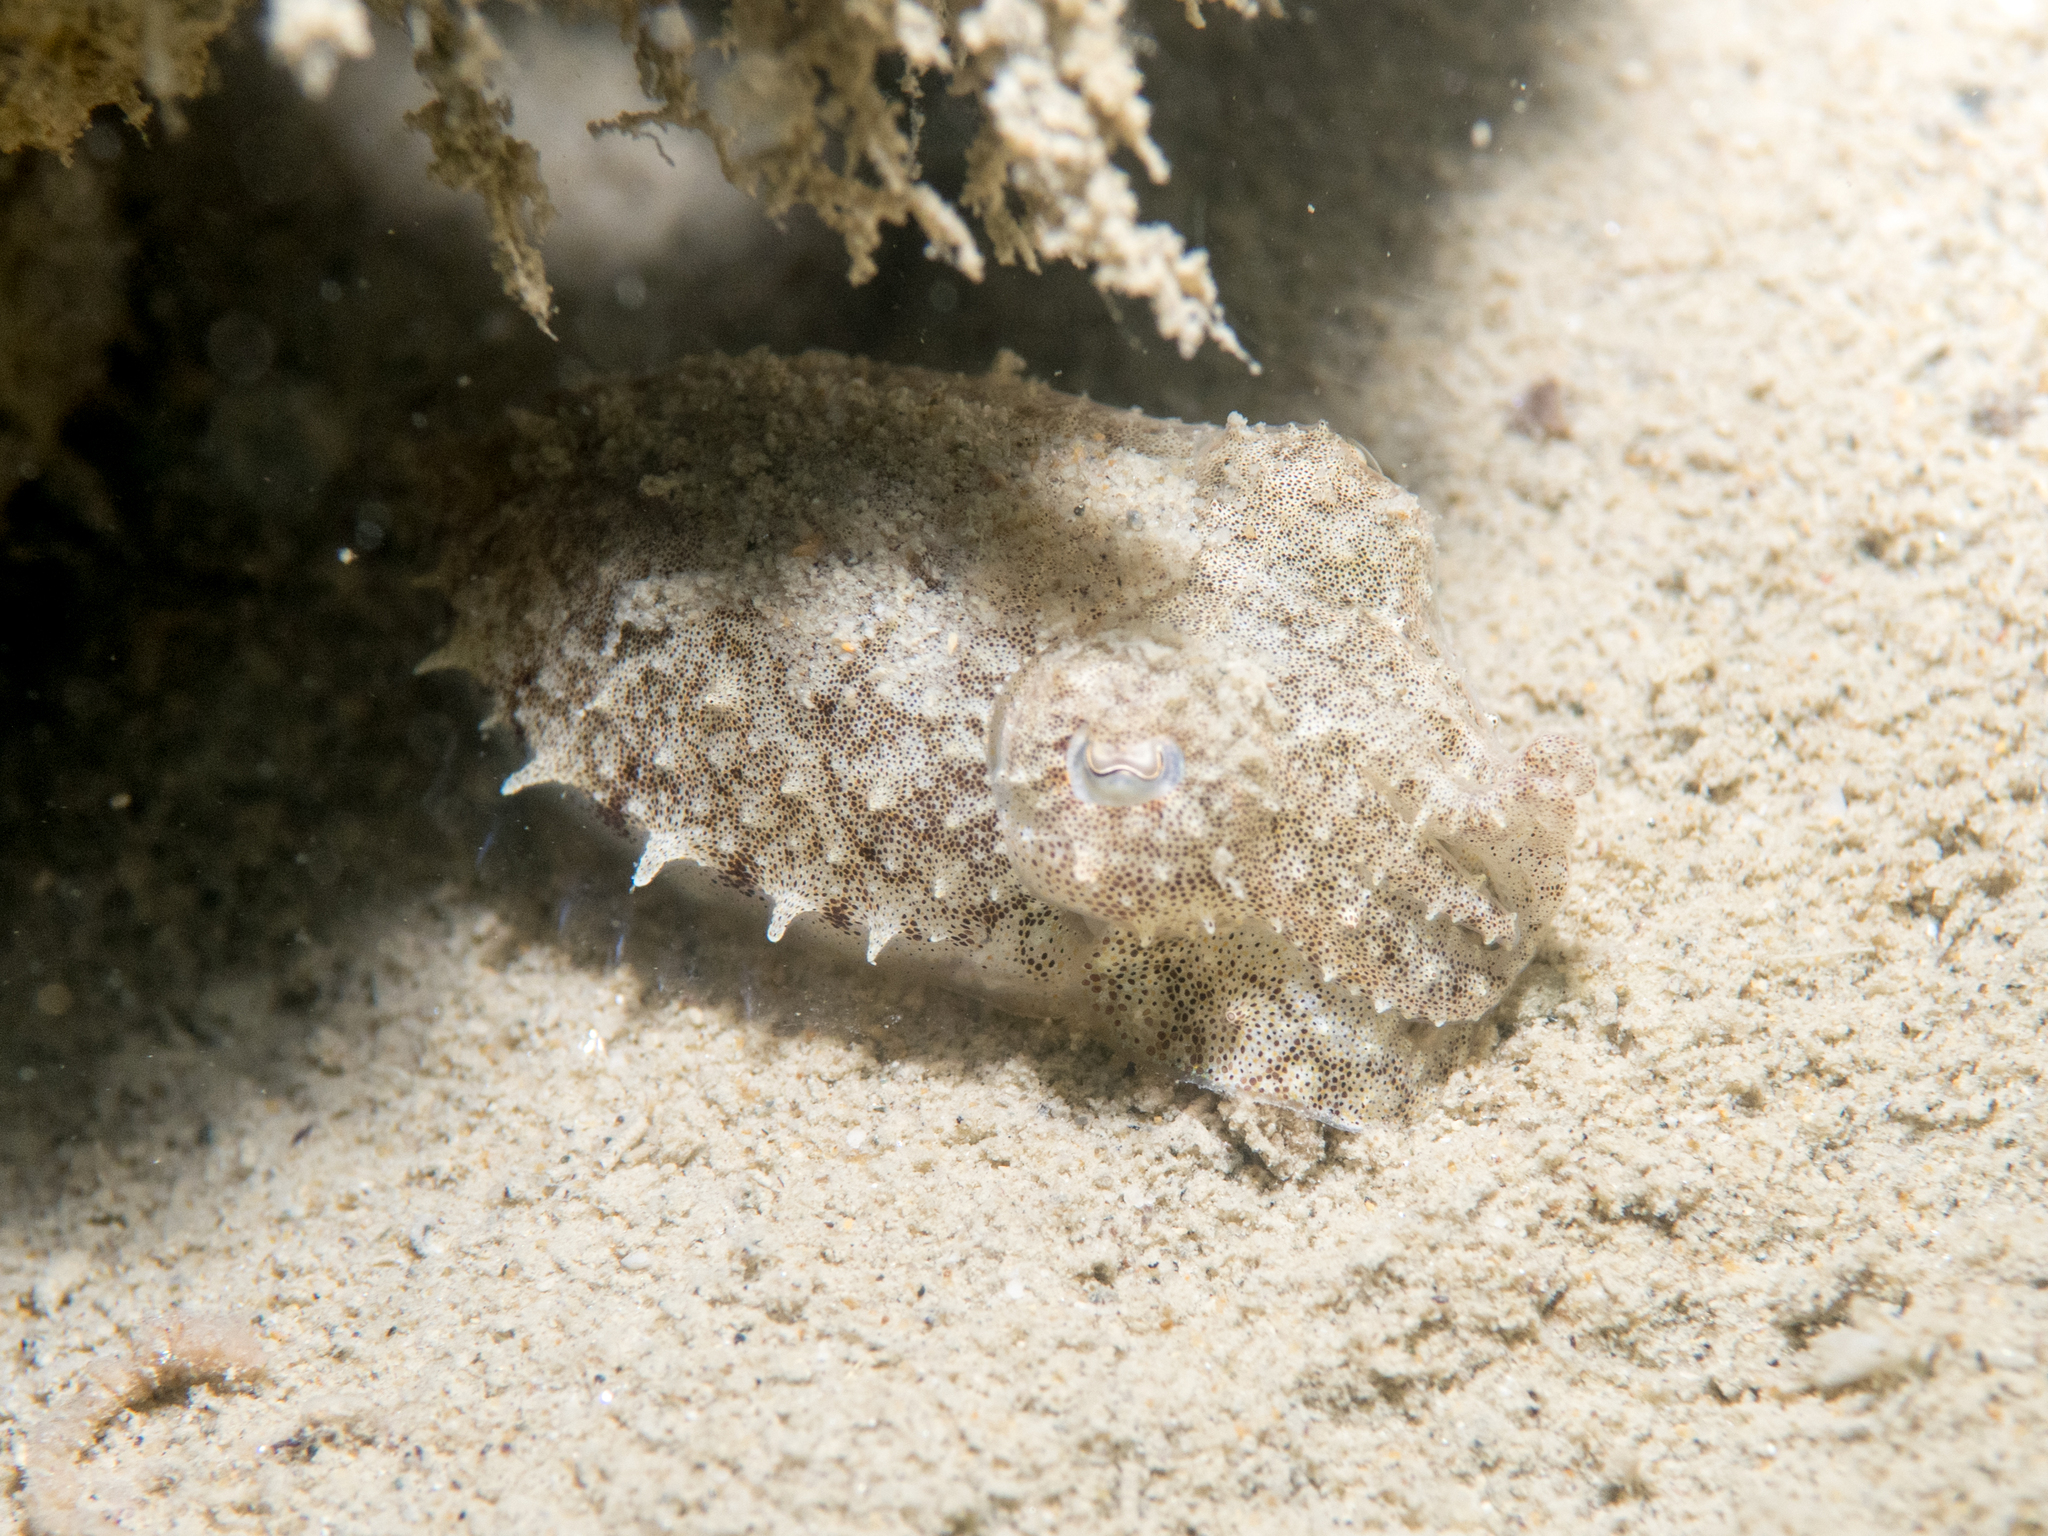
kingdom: Animalia
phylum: Mollusca
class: Cephalopoda
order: Sepiida
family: Sepiidae
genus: Sepia
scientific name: Sepia officinalis
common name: Common cuttlefish
